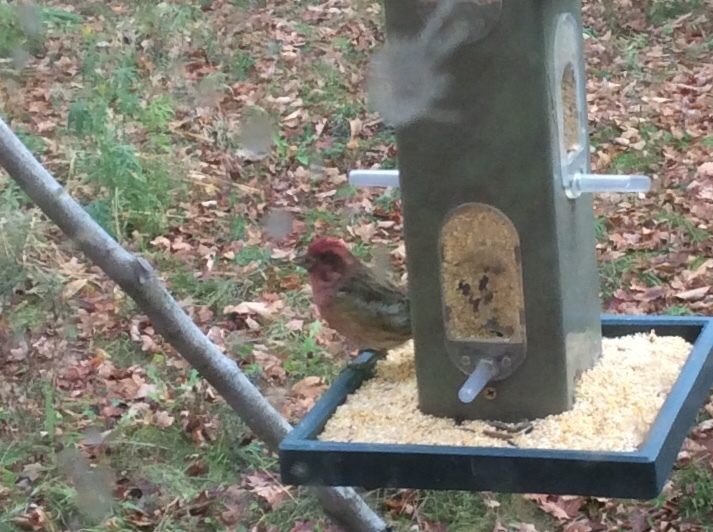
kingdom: Animalia
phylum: Chordata
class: Aves
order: Passeriformes
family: Fringillidae
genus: Haemorhous
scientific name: Haemorhous purpureus
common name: Purple finch
